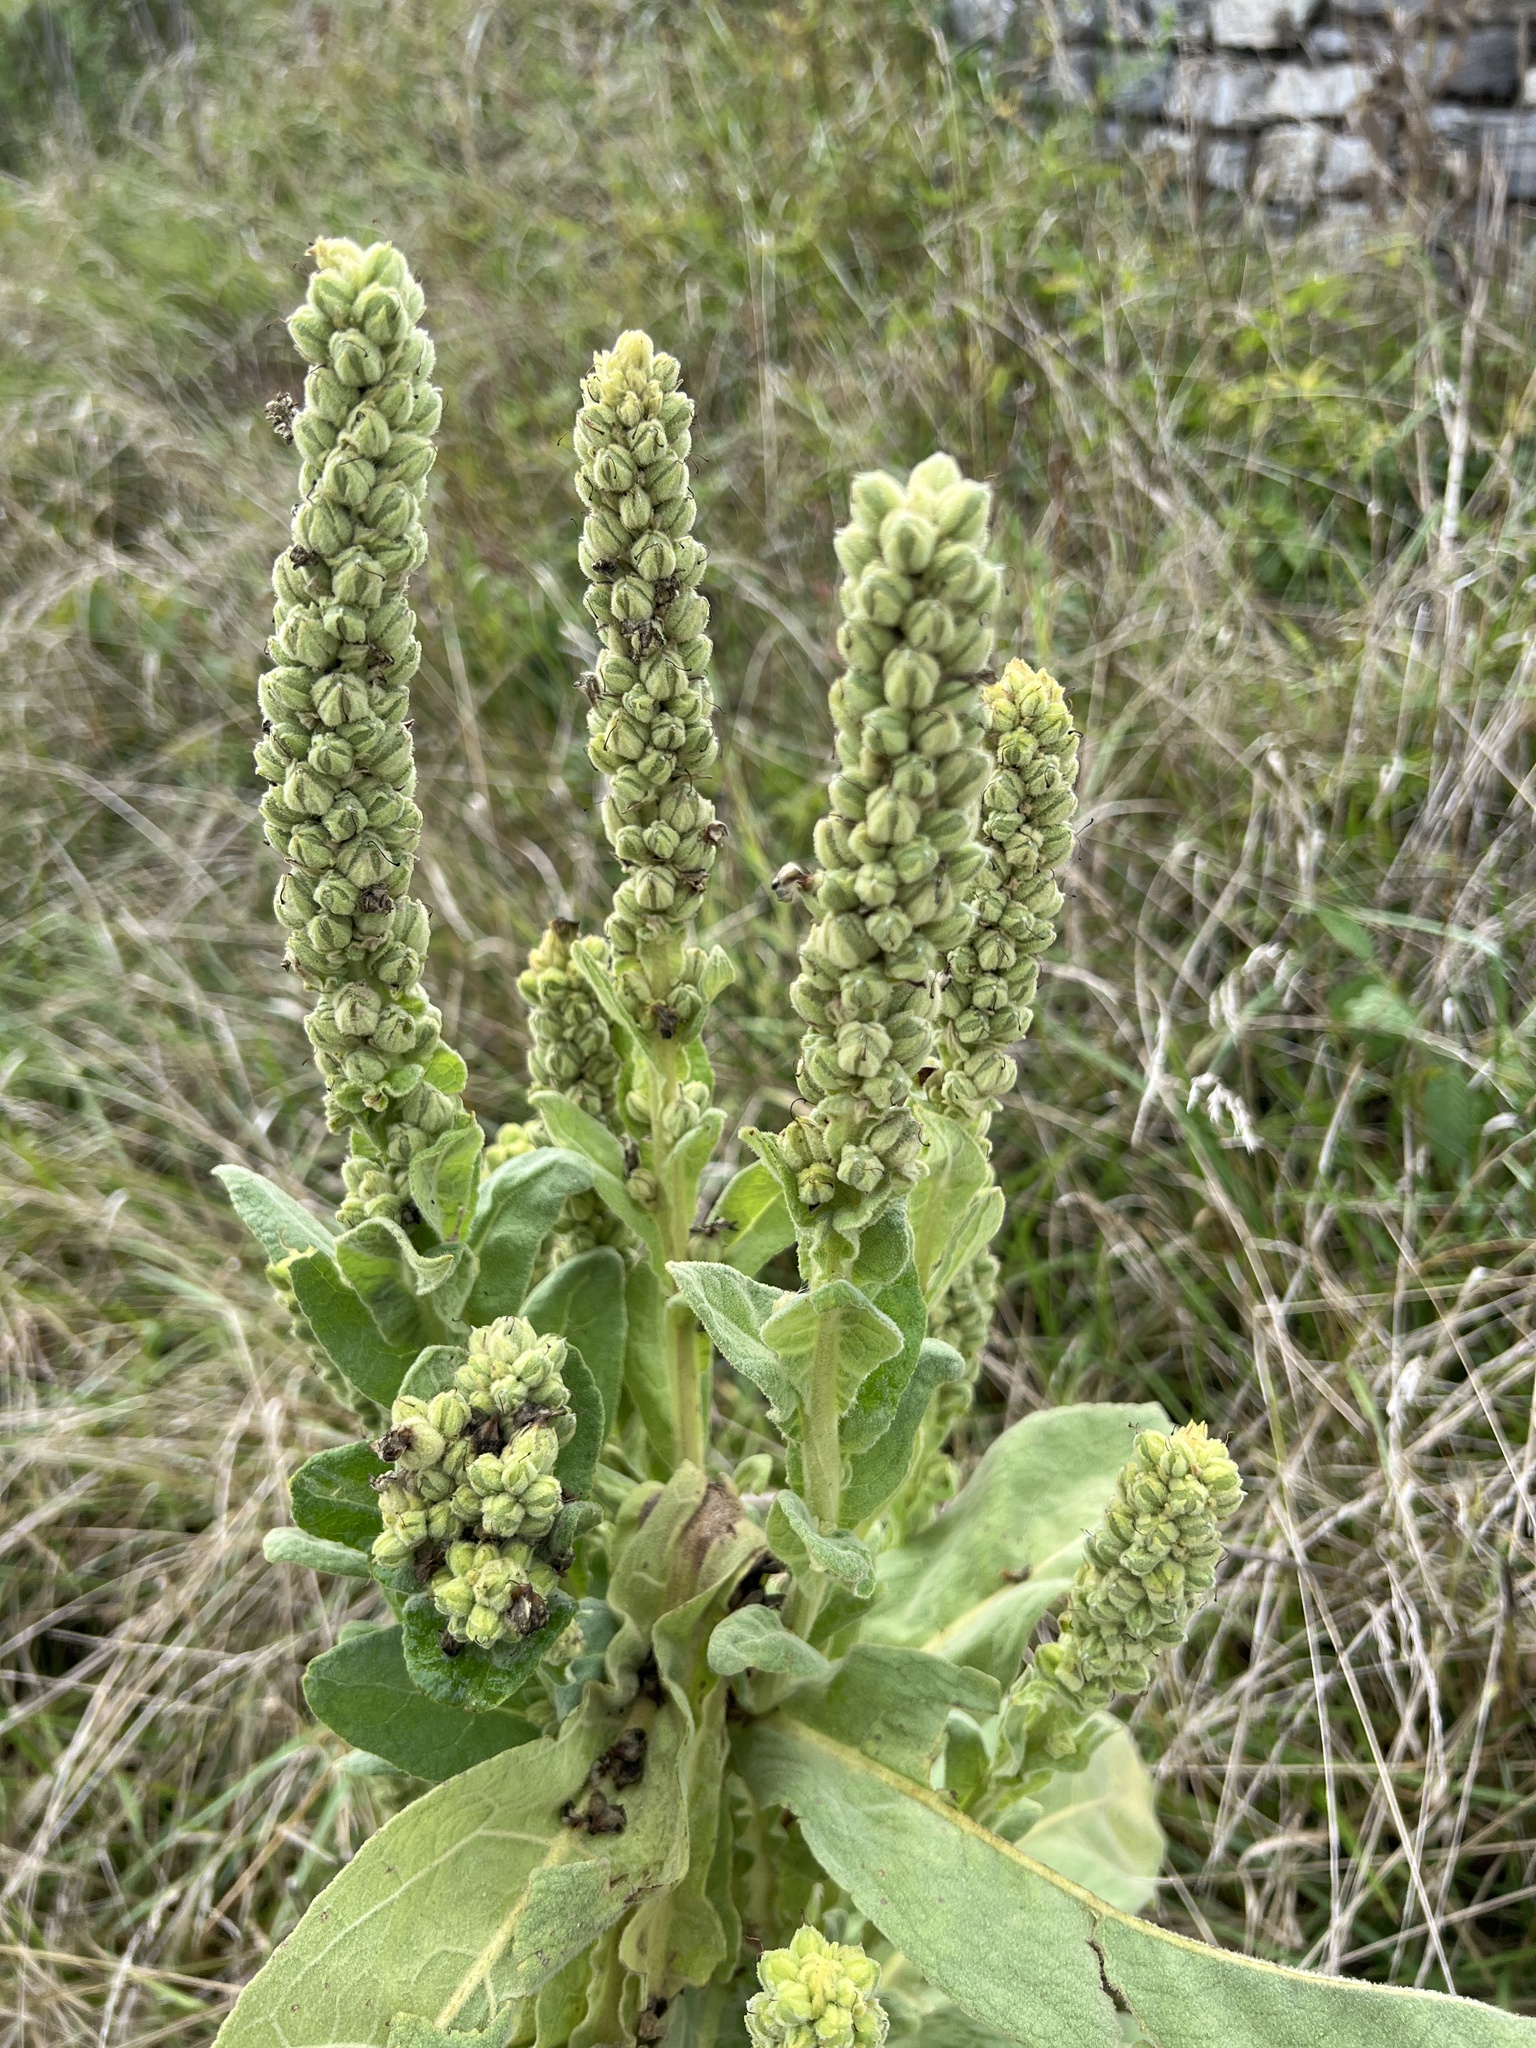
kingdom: Plantae
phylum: Tracheophyta
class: Magnoliopsida
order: Lamiales
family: Scrophulariaceae
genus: Verbascum
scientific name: Verbascum thapsus
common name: Common mullein
